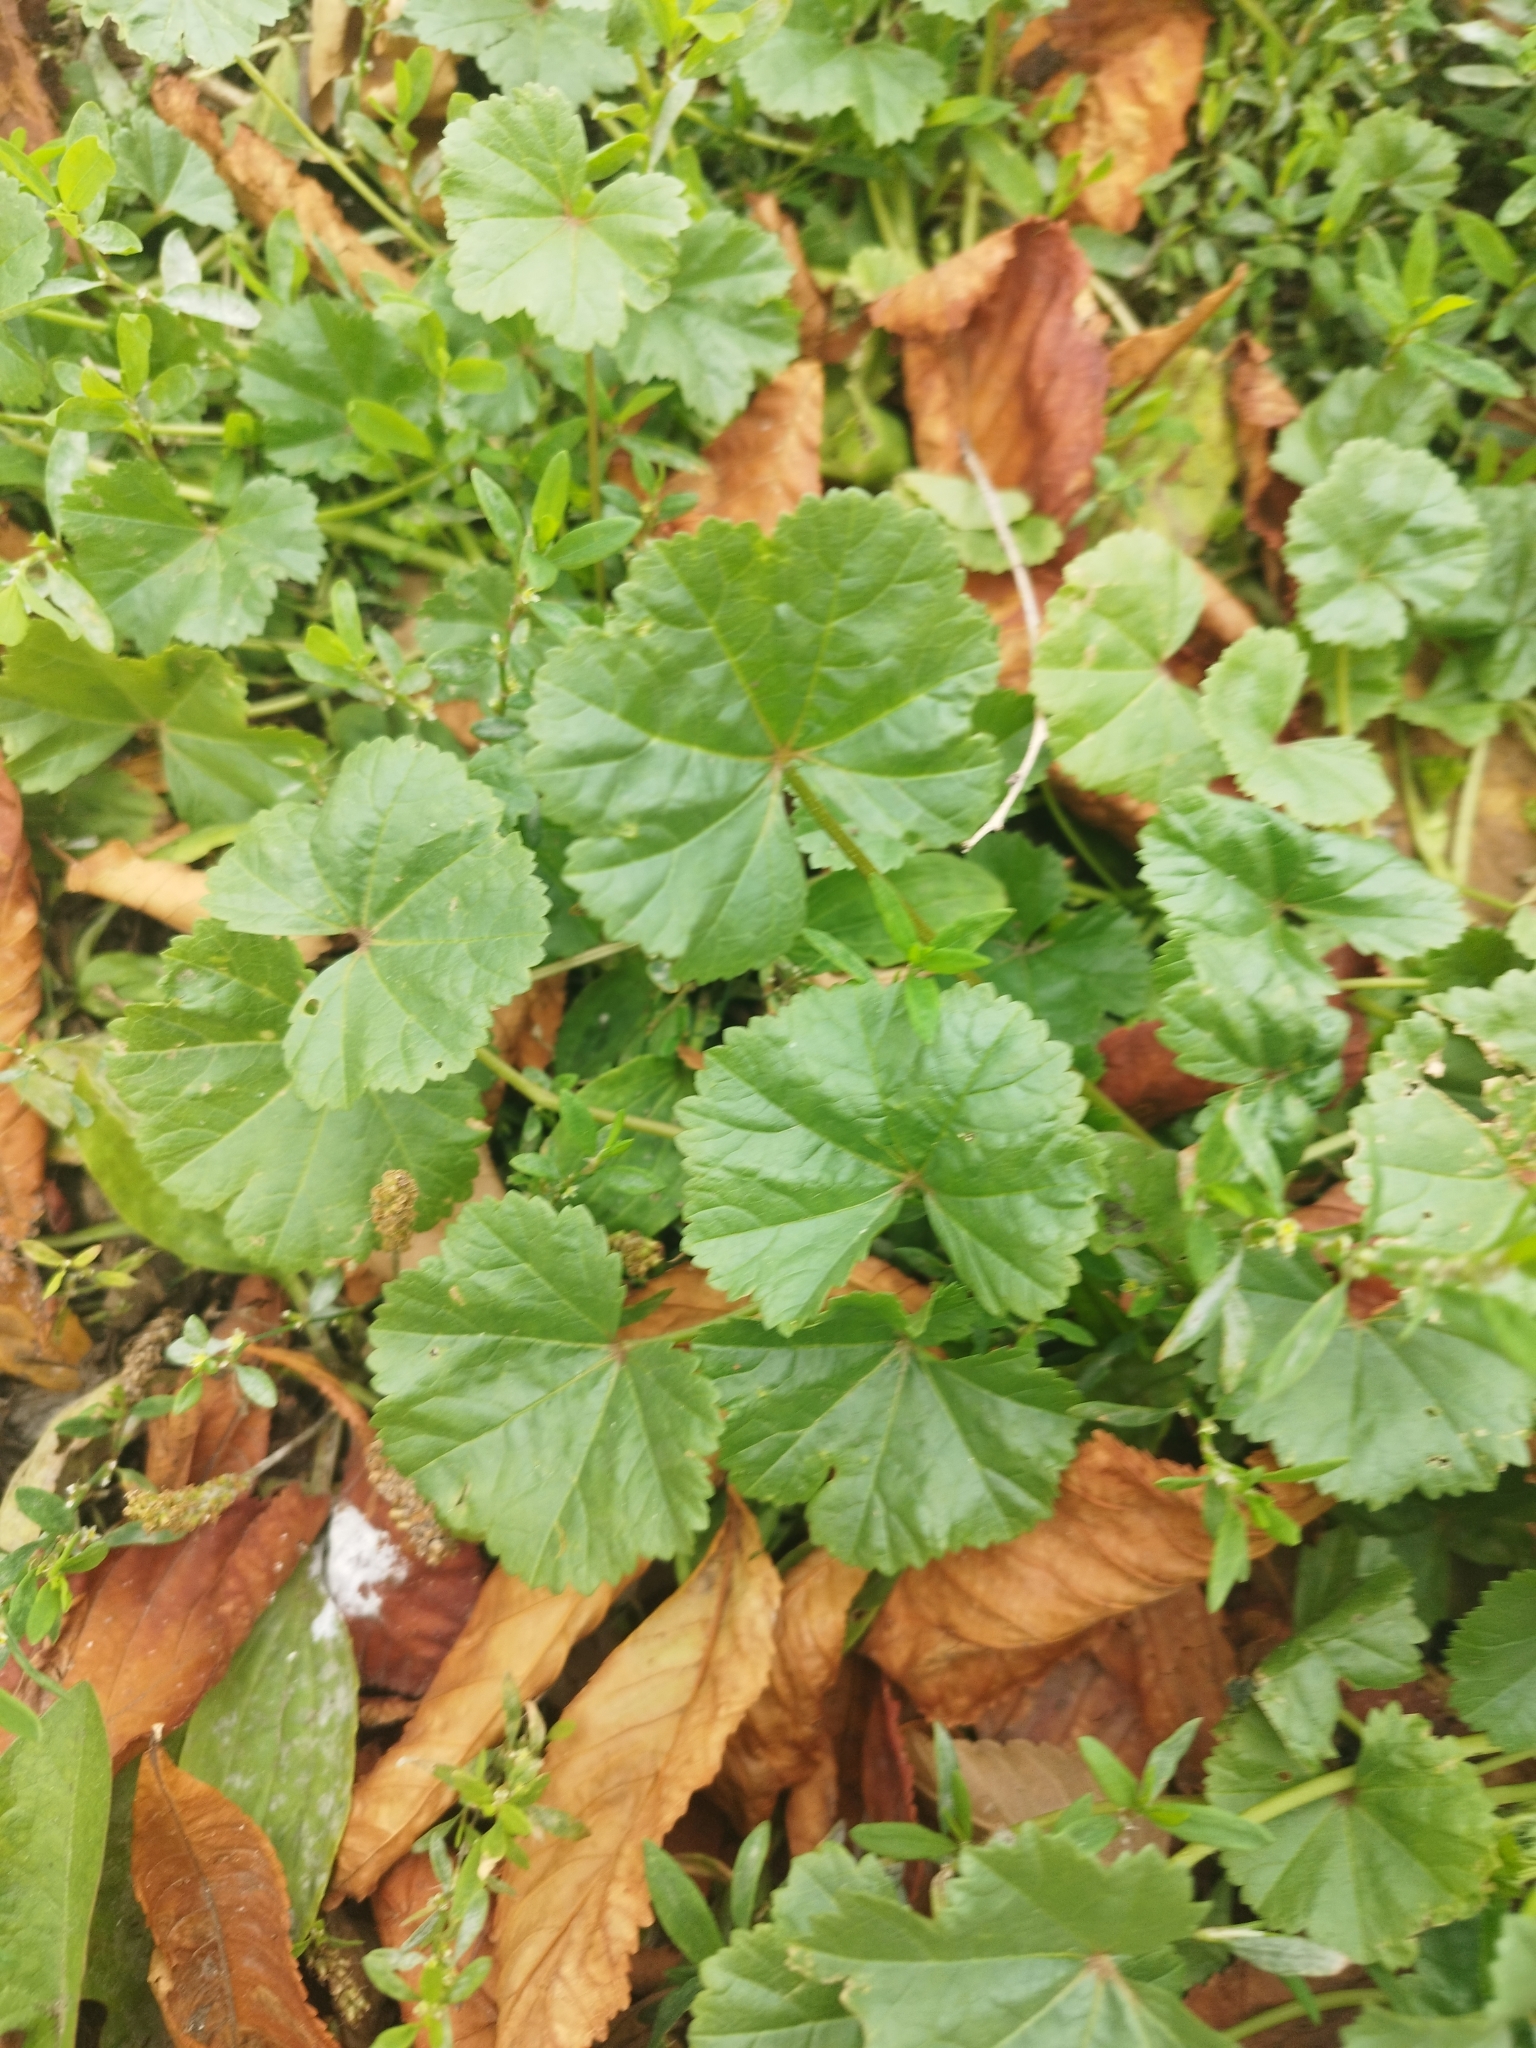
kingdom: Plantae
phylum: Tracheophyta
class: Magnoliopsida
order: Malvales
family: Malvaceae
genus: Malva
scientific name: Malva pusilla
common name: Small mallow
